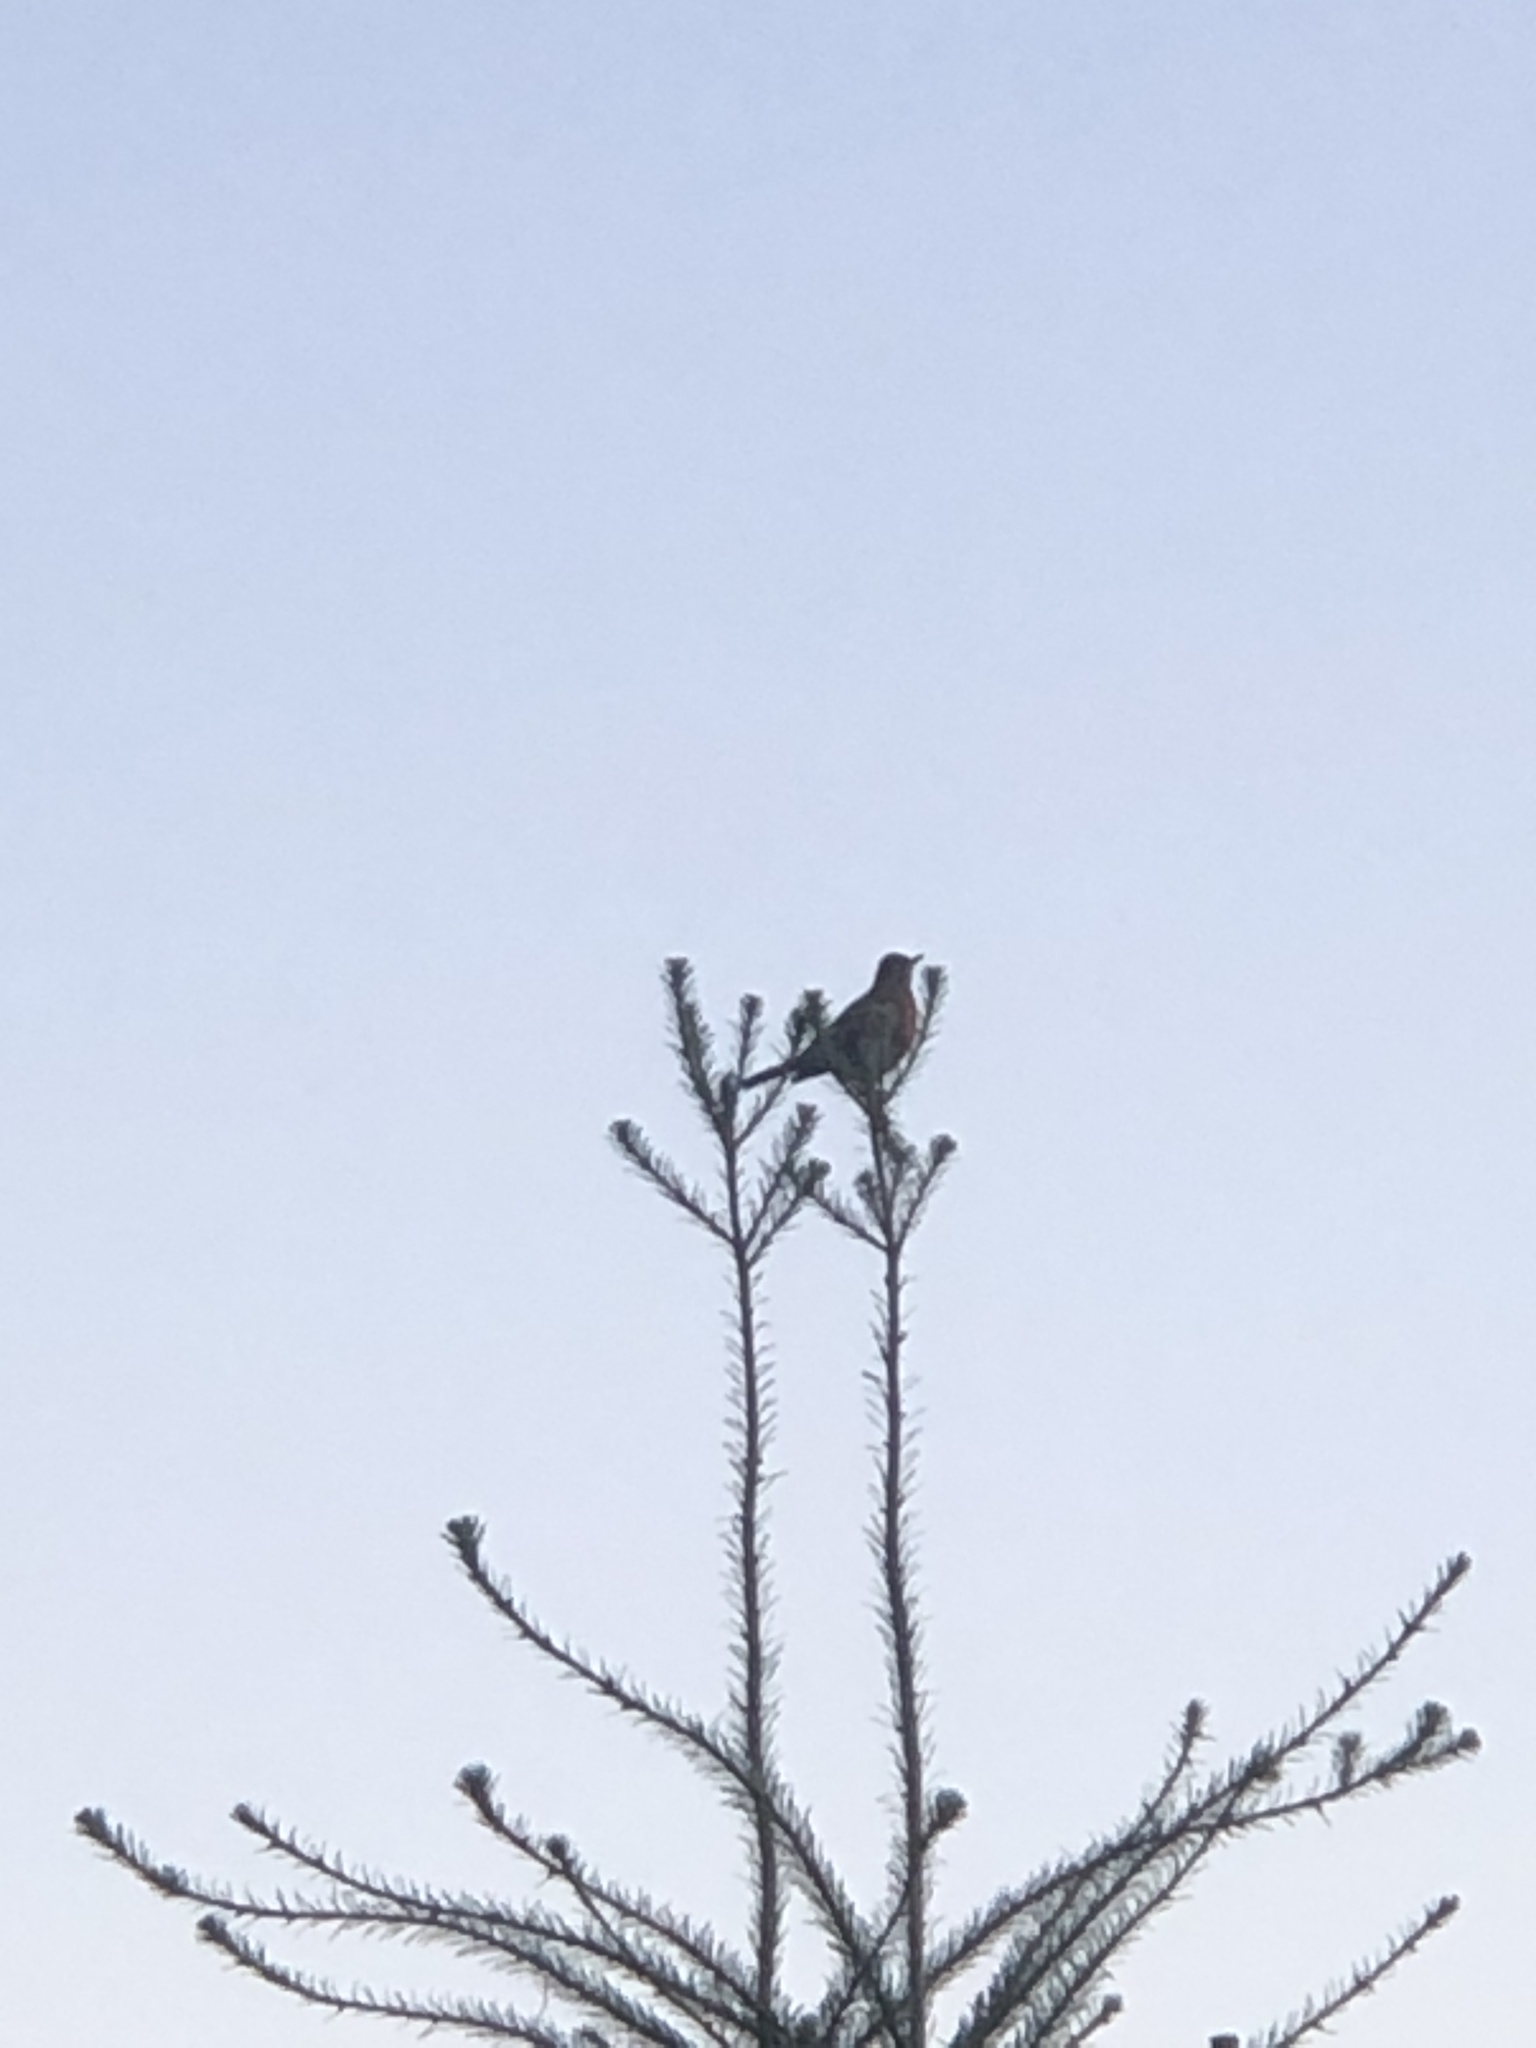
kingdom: Animalia
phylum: Chordata
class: Aves
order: Passeriformes
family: Turdidae
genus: Turdus
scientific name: Turdus migratorius
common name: American robin
